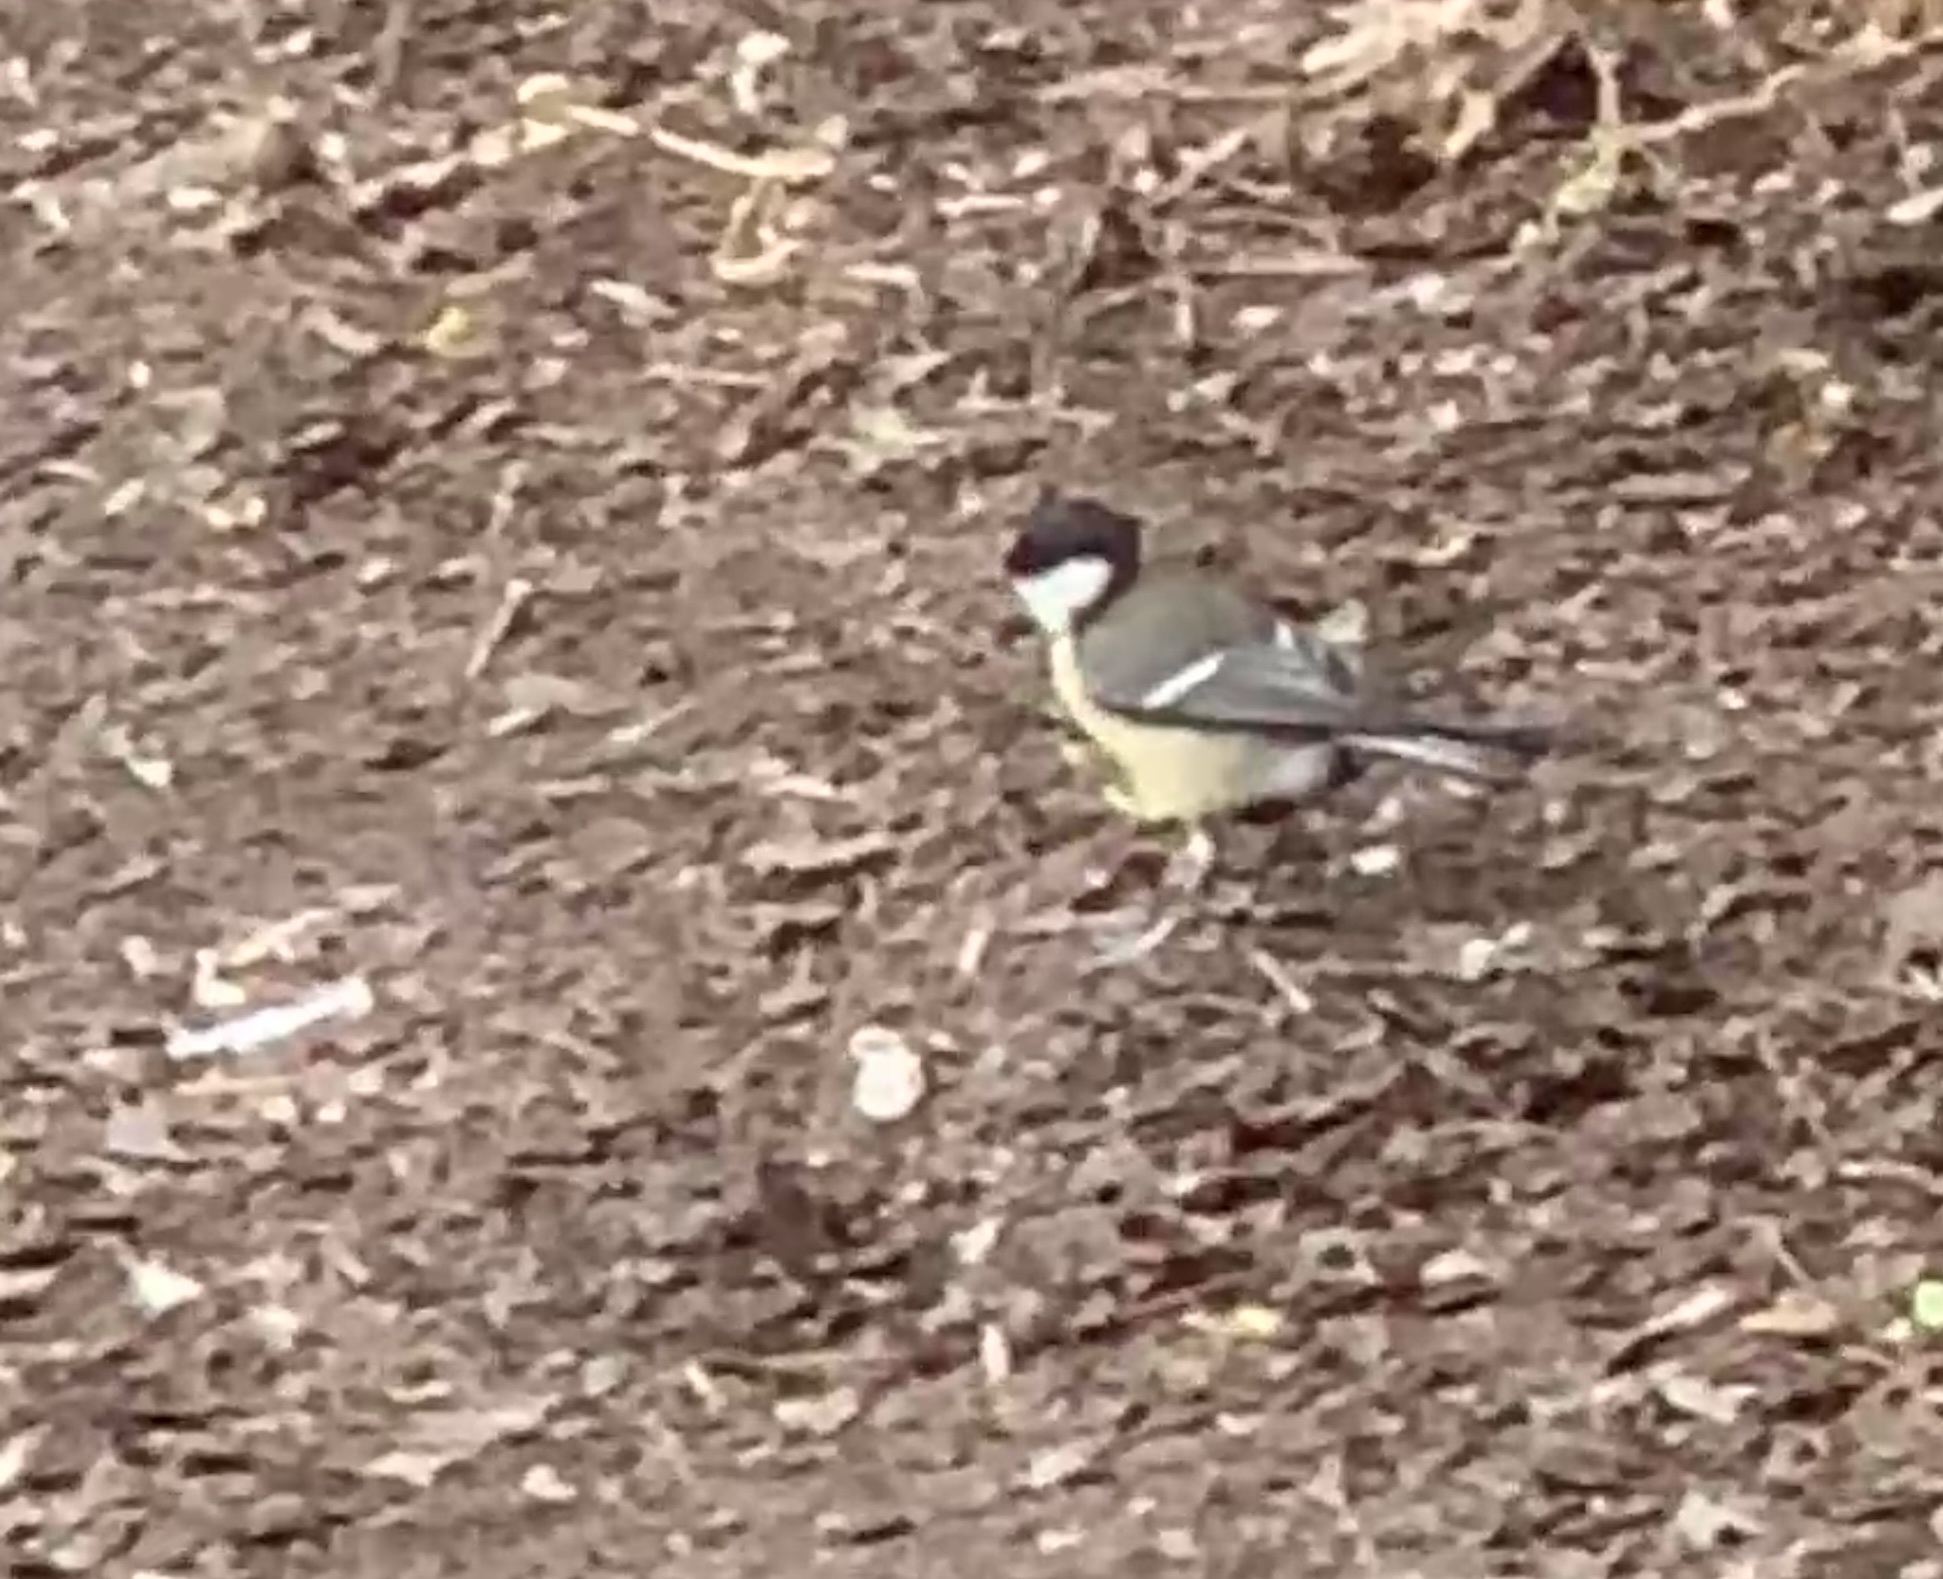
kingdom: Animalia
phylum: Chordata
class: Aves
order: Passeriformes
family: Paridae
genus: Parus
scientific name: Parus major
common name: Great tit
